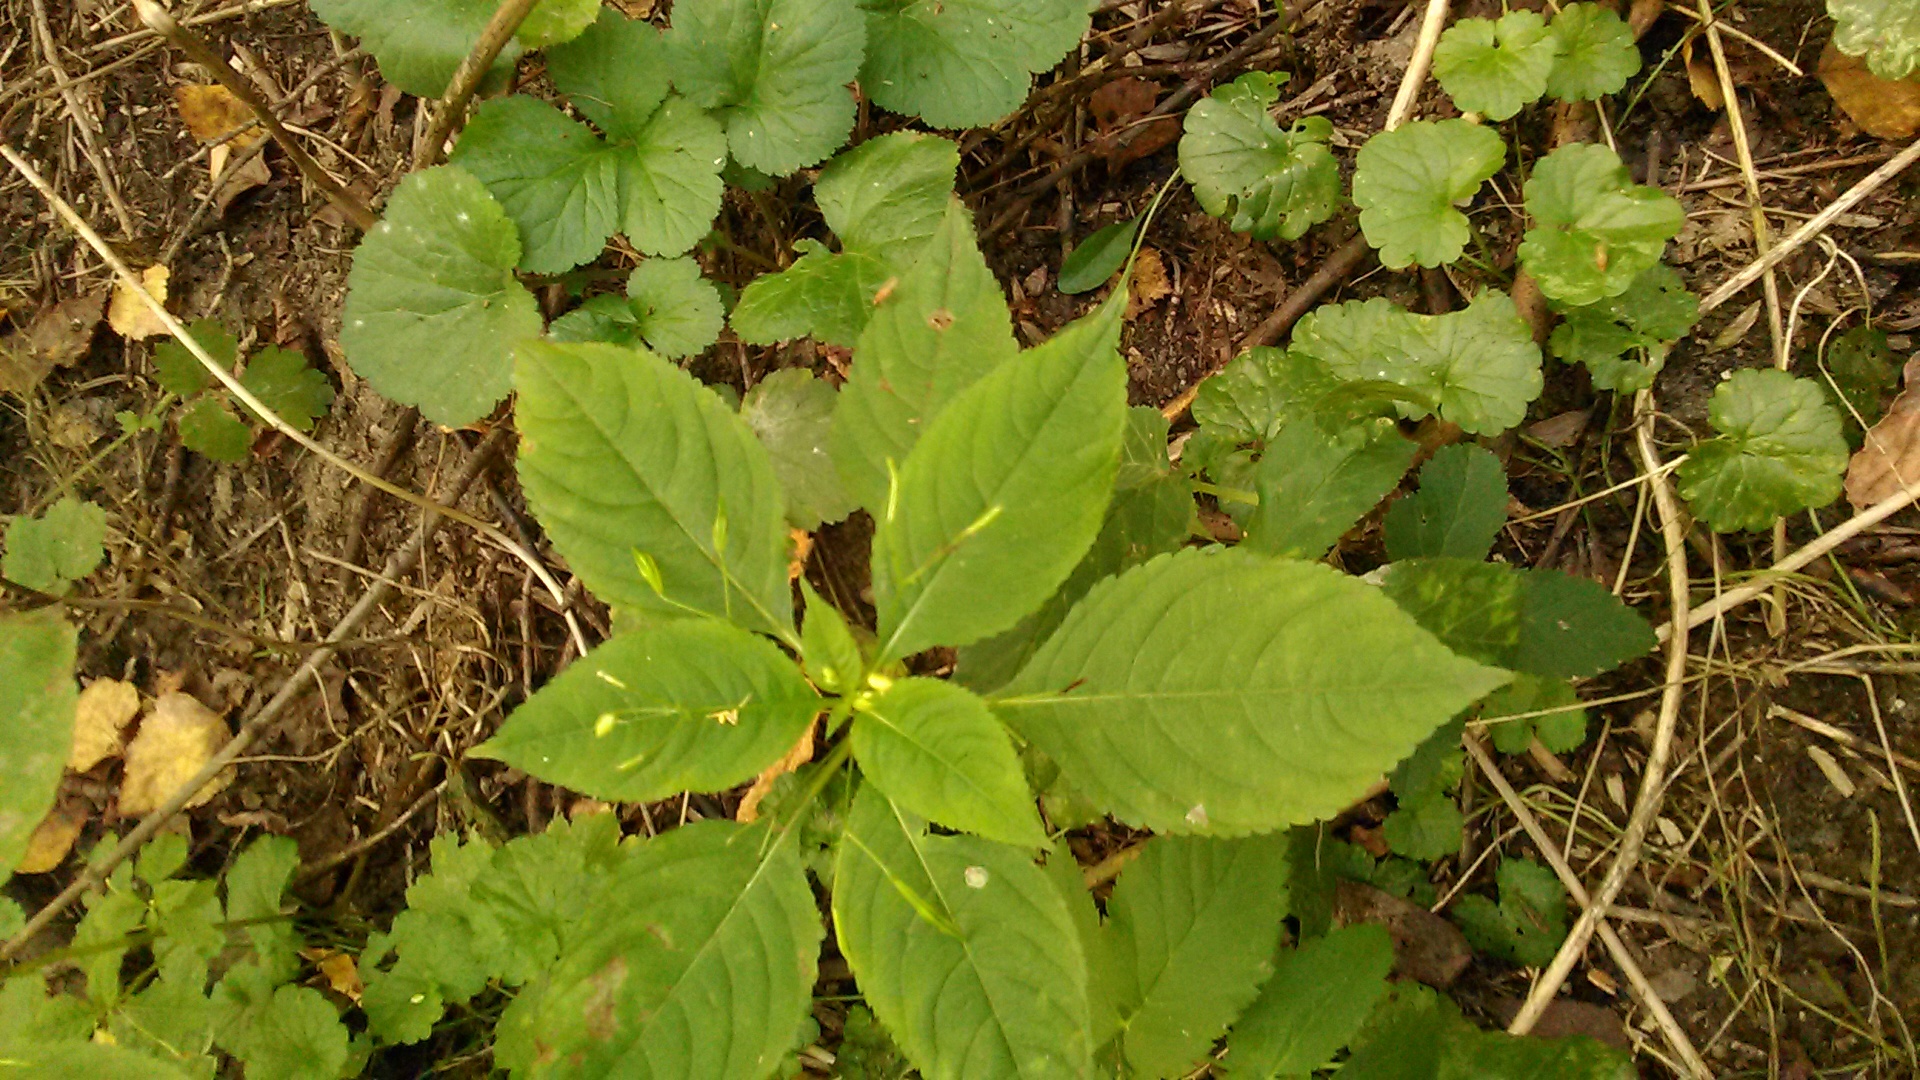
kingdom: Plantae
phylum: Tracheophyta
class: Magnoliopsida
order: Ericales
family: Balsaminaceae
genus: Impatiens
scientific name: Impatiens parviflora
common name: Small balsam
